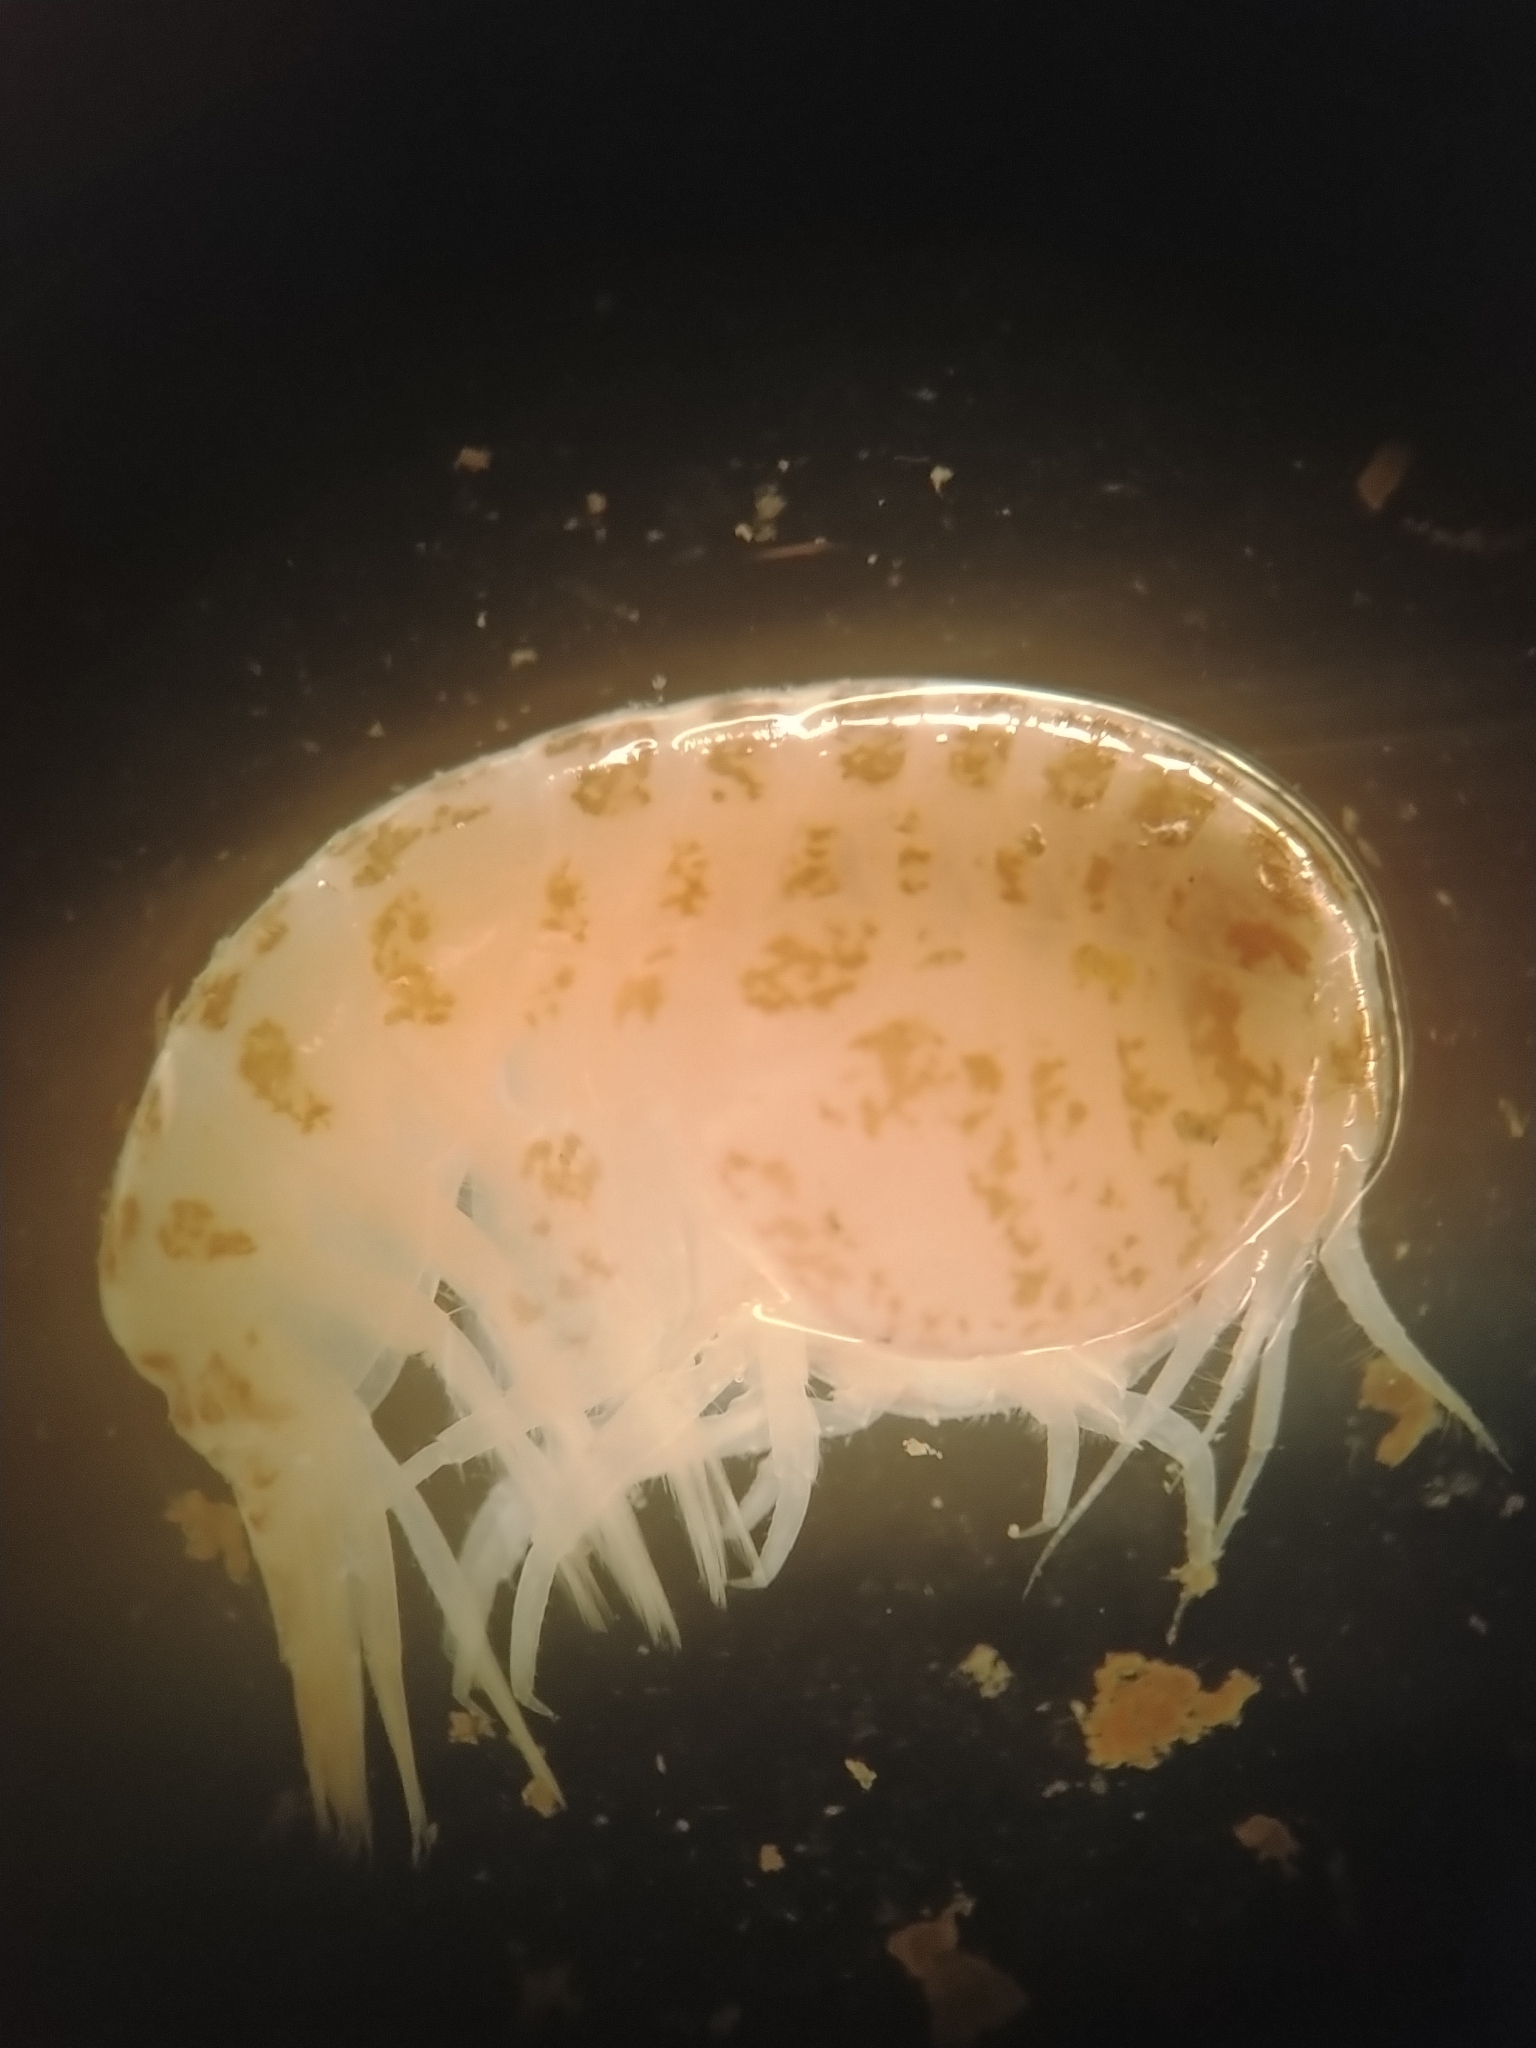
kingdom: Animalia
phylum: Arthropoda
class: Malacostraca
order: Amphipoda
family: Stegocephalidae
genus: Stegocephalus
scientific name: Stegocephalus inflatus
